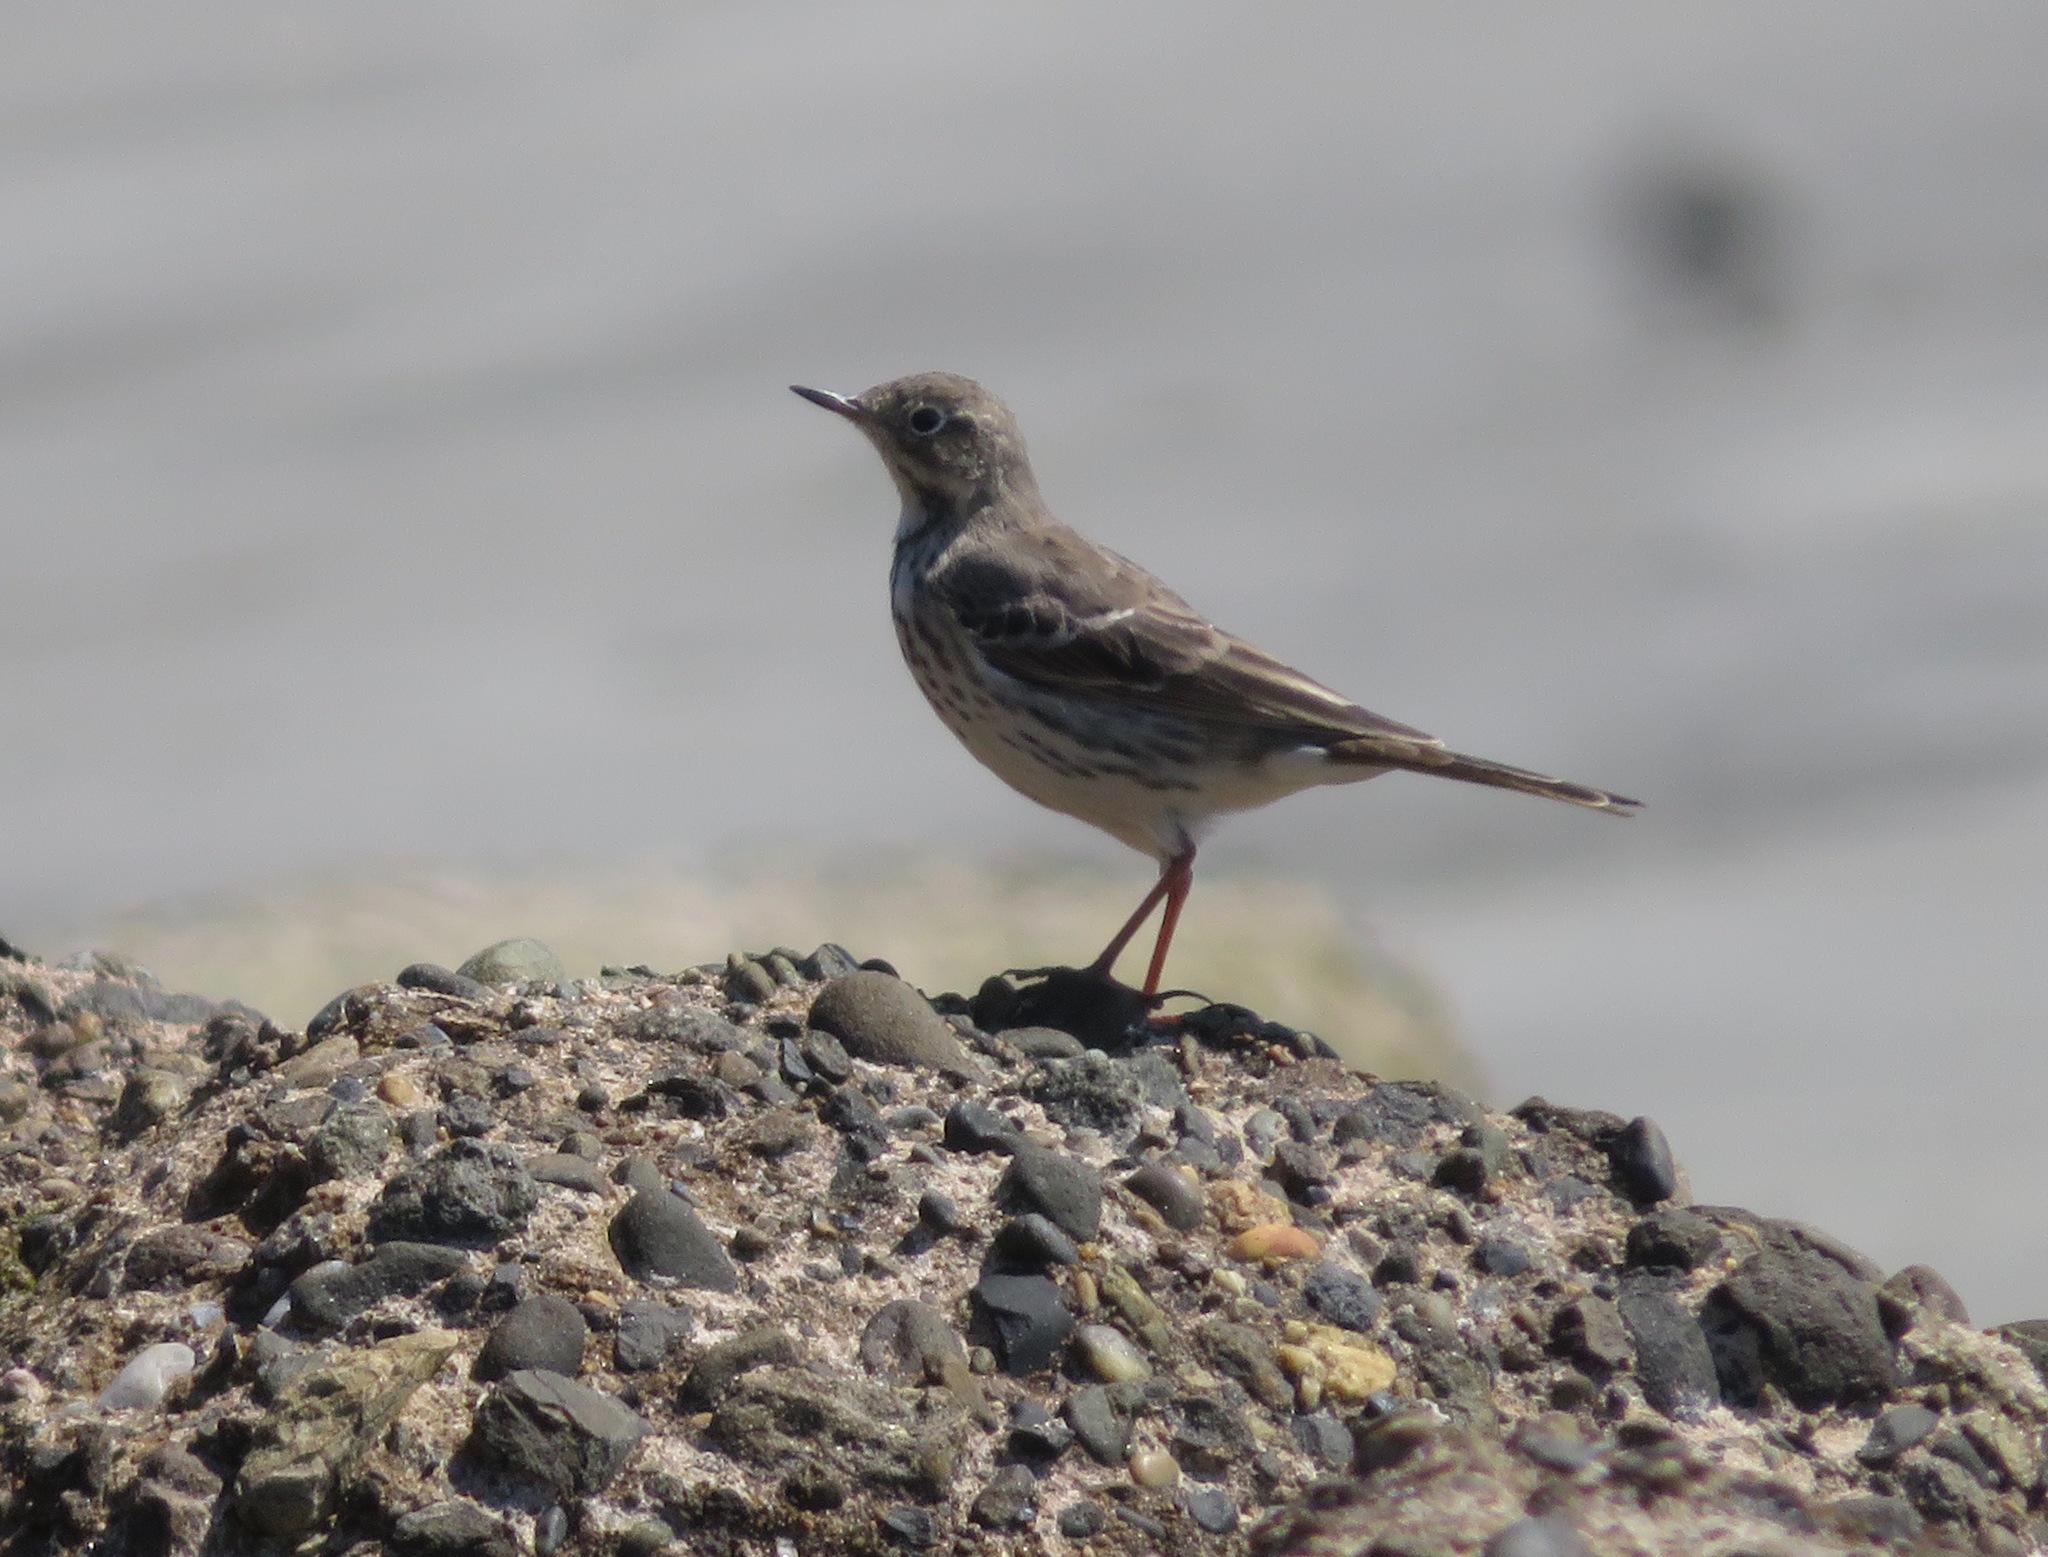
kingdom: Animalia
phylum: Chordata
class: Aves
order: Passeriformes
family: Motacillidae
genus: Anthus
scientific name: Anthus rubescens
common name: Buff-bellied pipit
